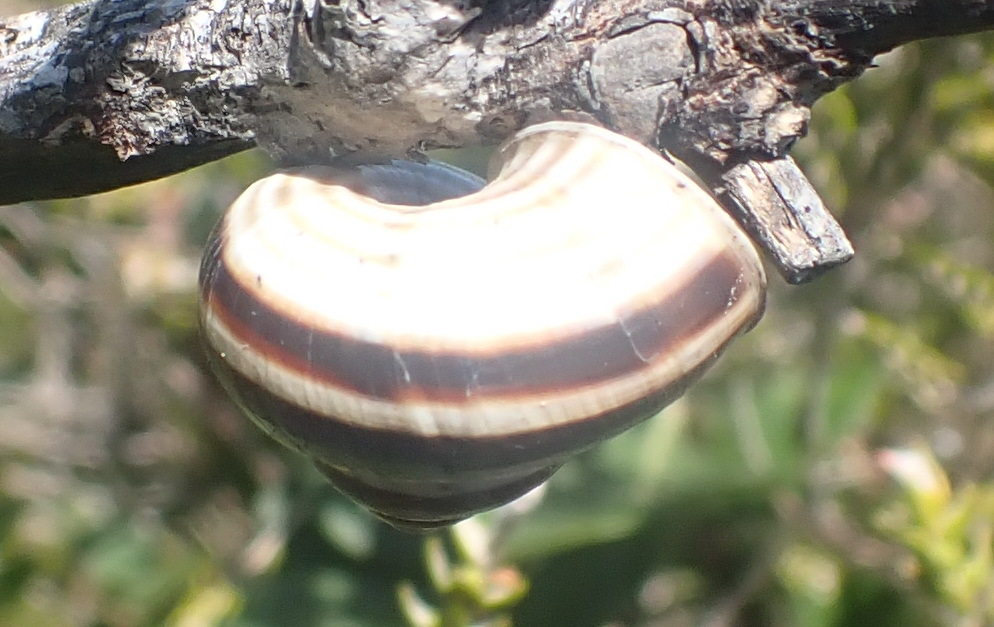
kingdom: Animalia
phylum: Mollusca
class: Gastropoda
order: Littorinimorpha
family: Pomatiidae
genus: Tropidophora
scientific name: Tropidophora ligata
